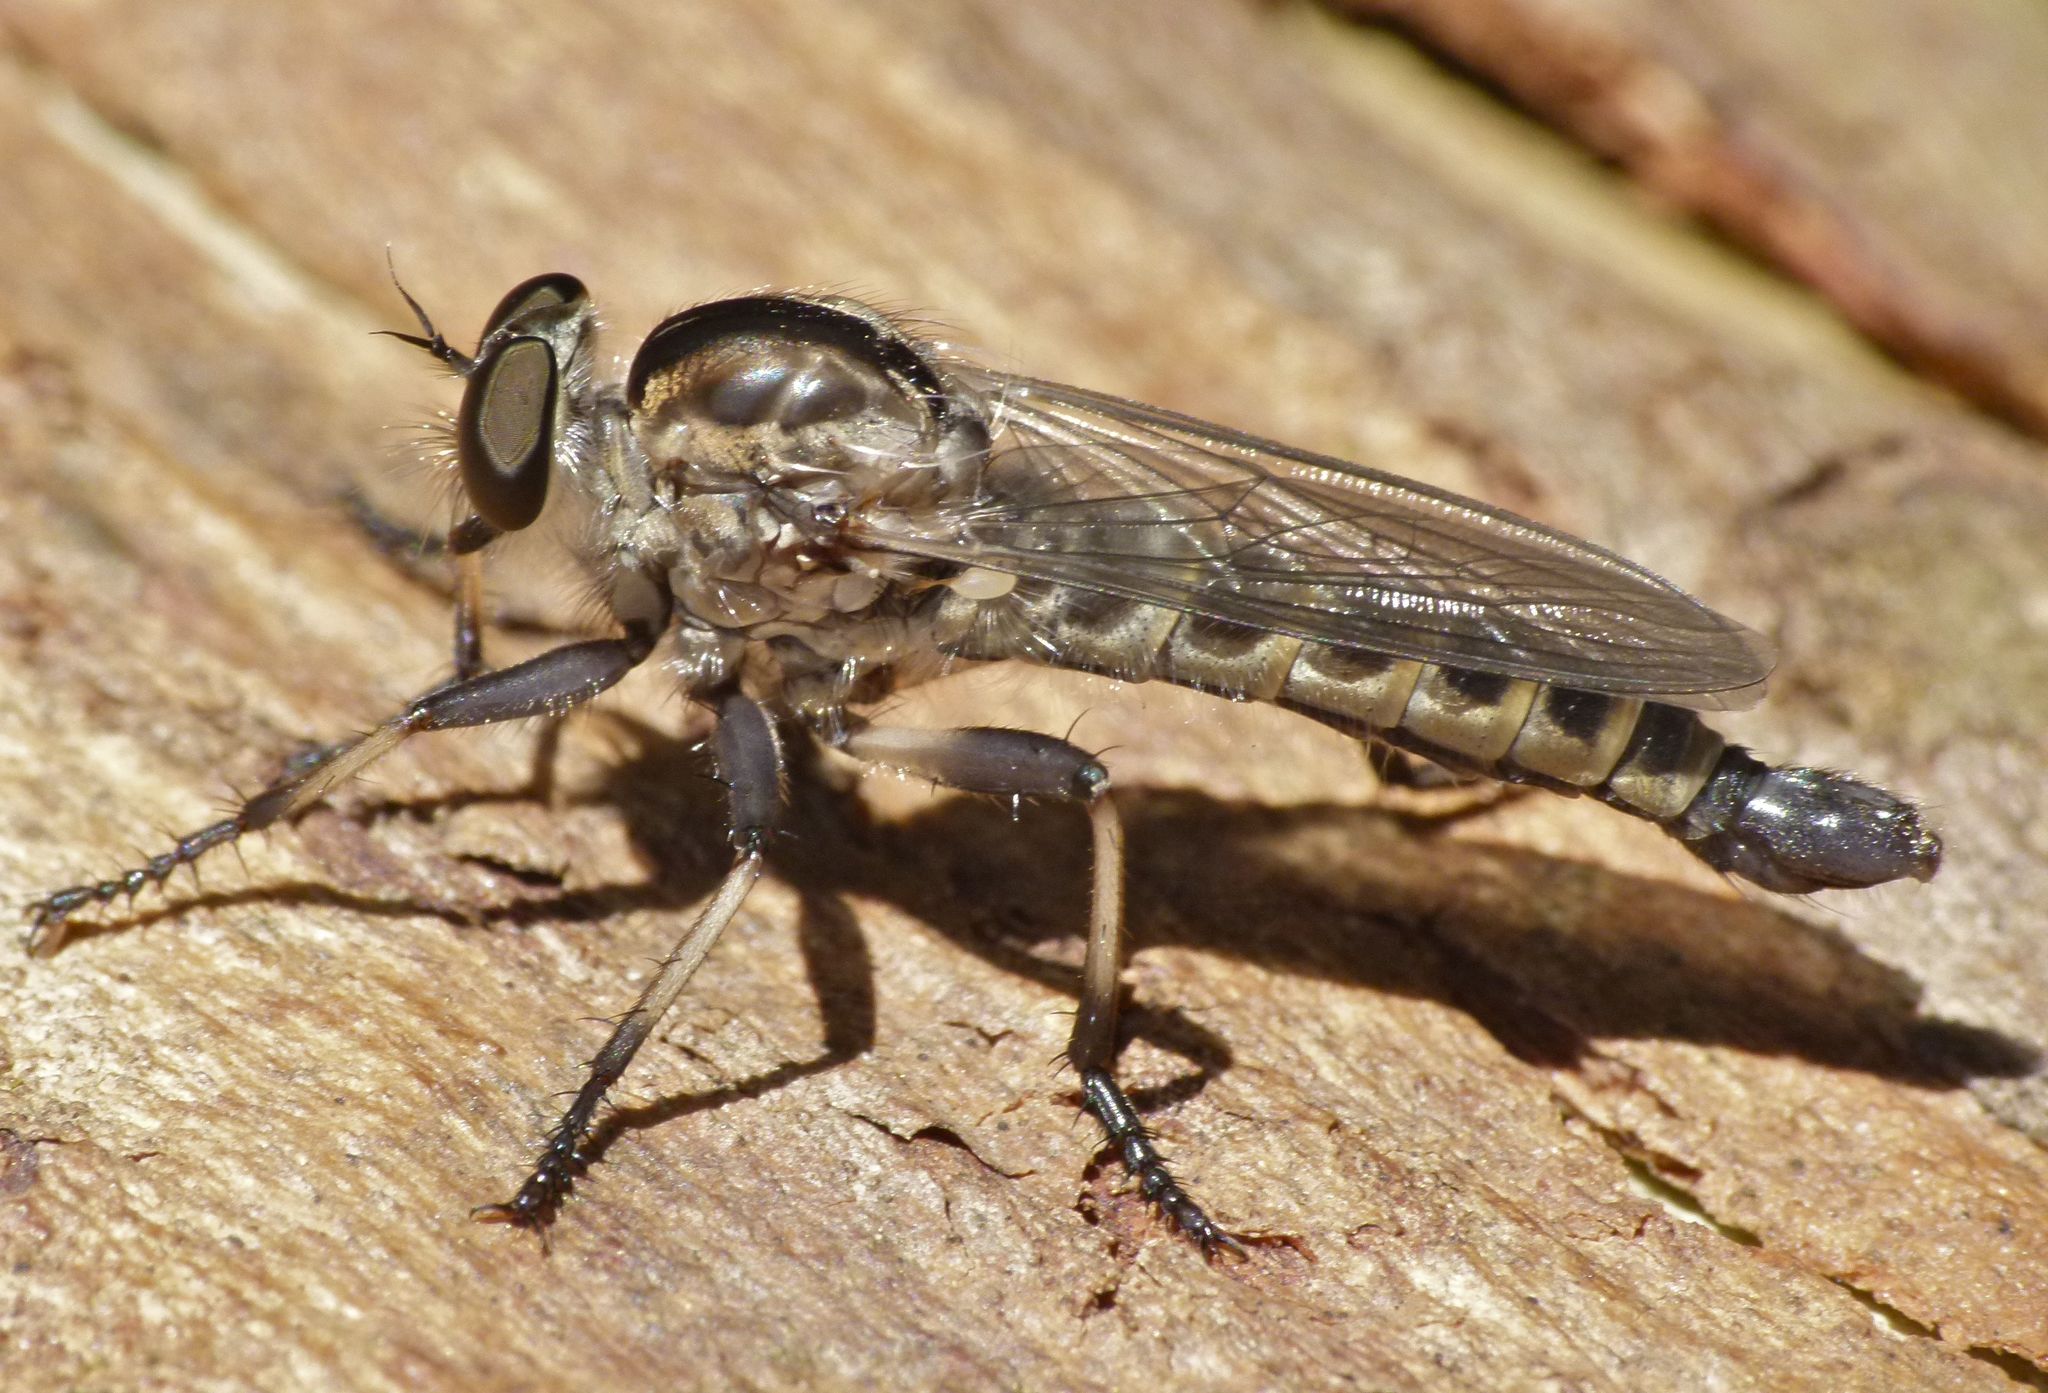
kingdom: Animalia
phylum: Arthropoda
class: Insecta
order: Diptera
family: Asilidae
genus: Cerdistus
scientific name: Cerdistus fuscipennis
